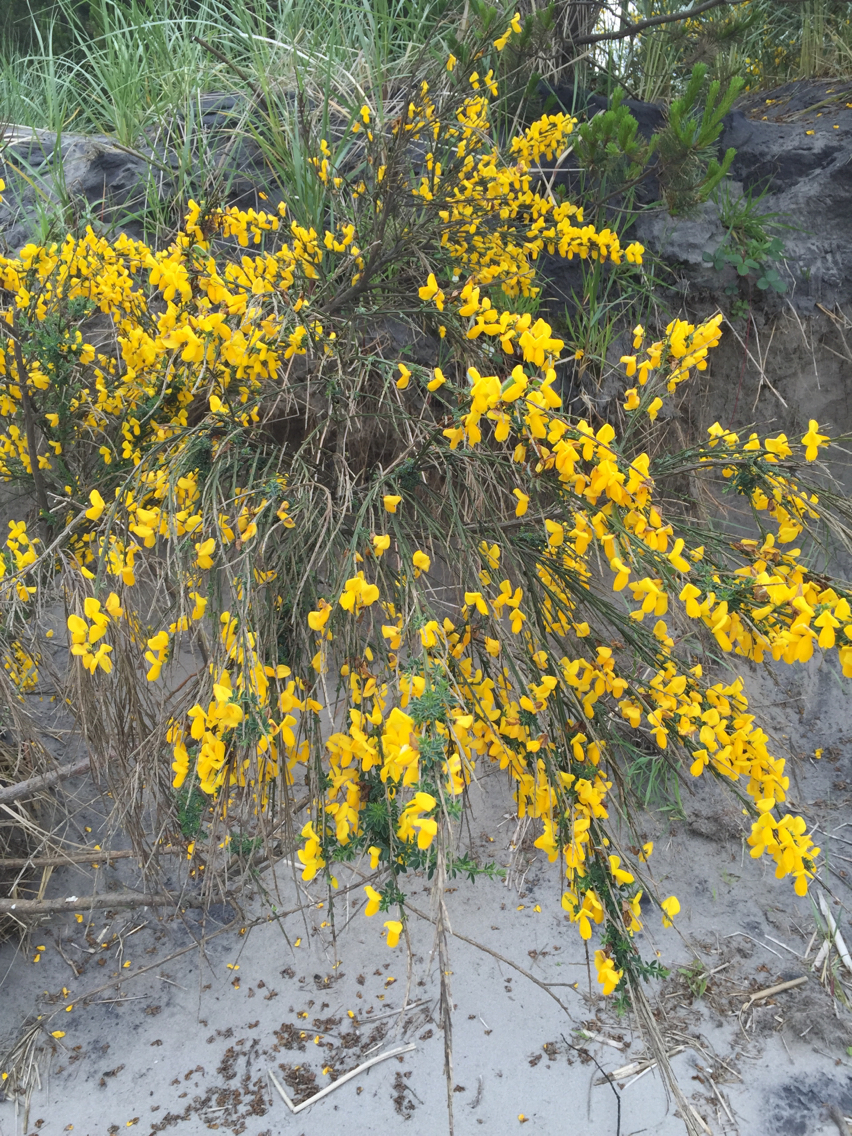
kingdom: Plantae
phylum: Tracheophyta
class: Magnoliopsida
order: Fabales
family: Fabaceae
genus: Cytisus
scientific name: Cytisus scoparius
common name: Scotch broom
